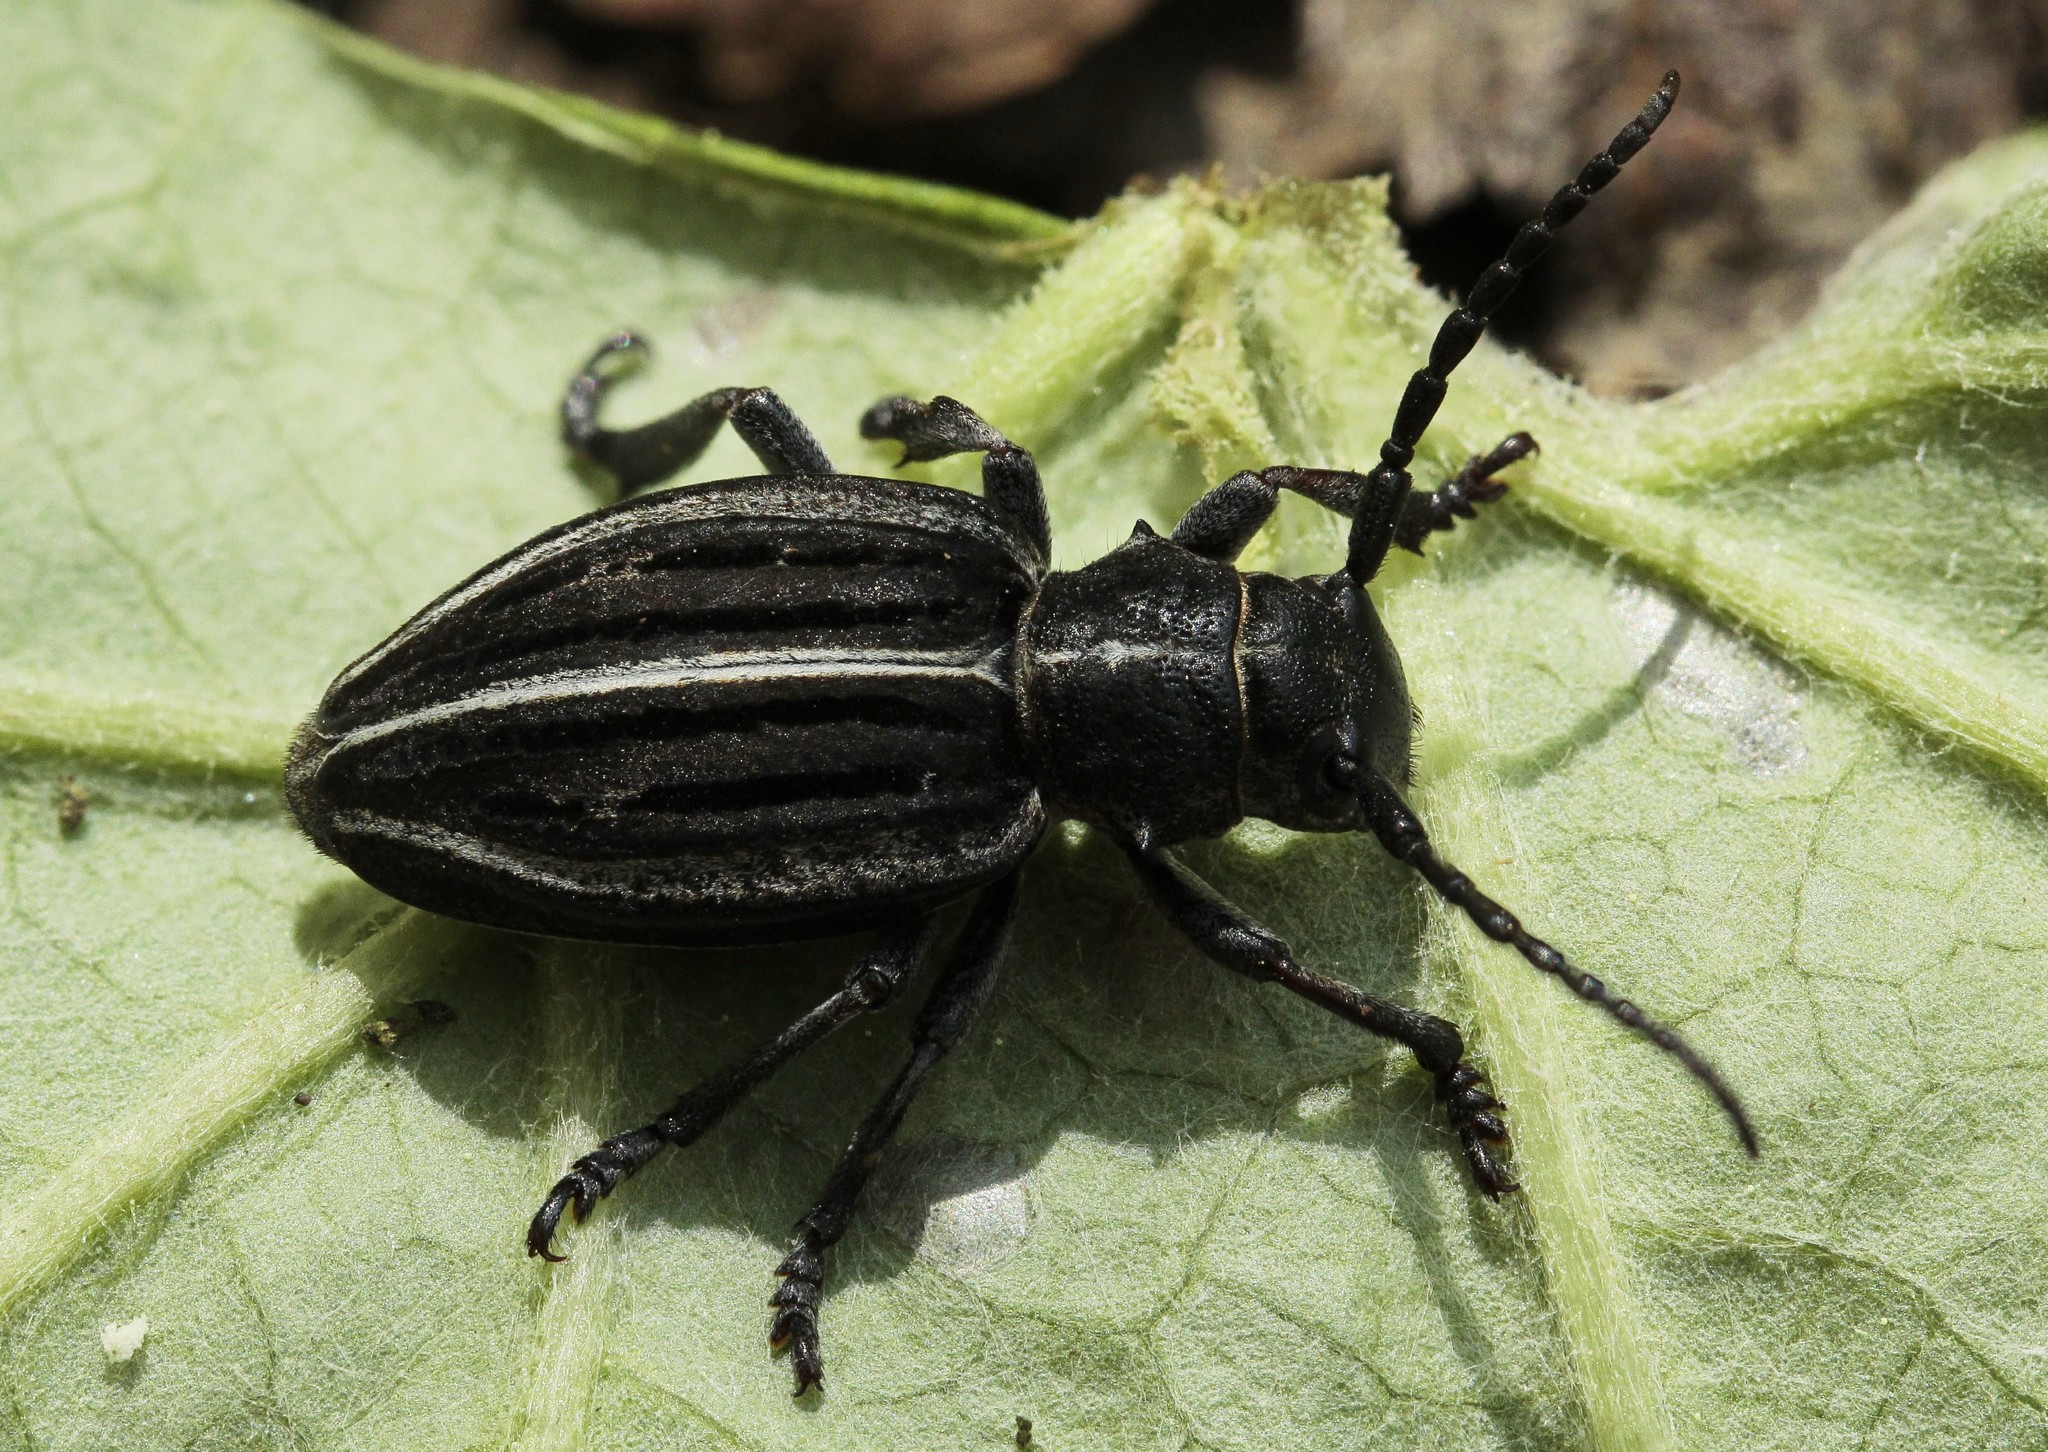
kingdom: Animalia
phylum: Arthropoda
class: Insecta
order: Coleoptera
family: Cerambycidae
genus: Dorcadion
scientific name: Dorcadion holosericeum
